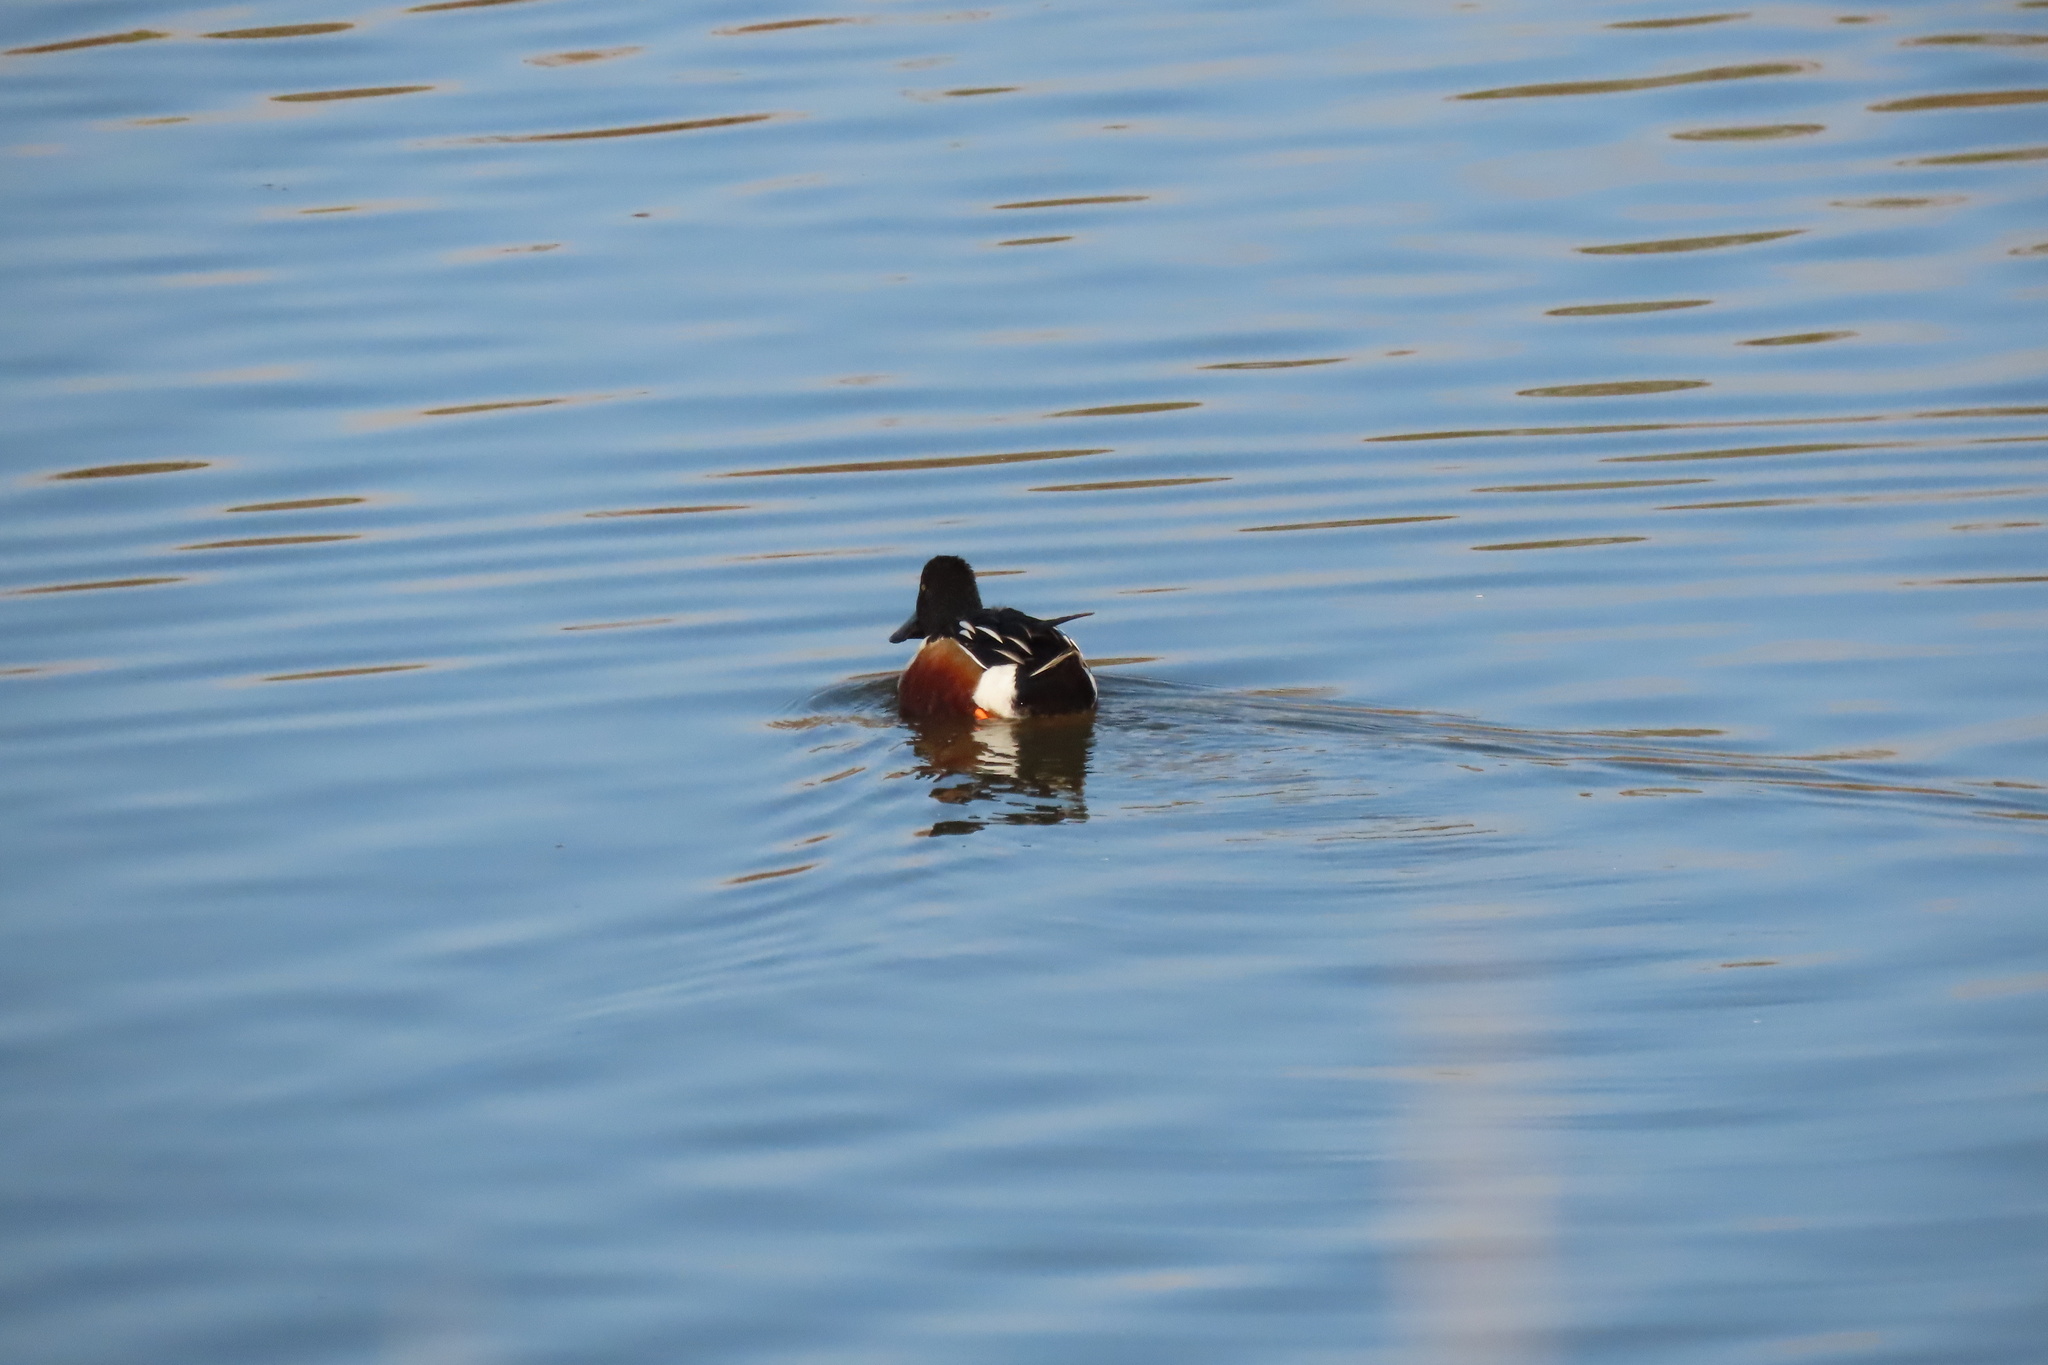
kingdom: Animalia
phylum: Chordata
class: Aves
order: Anseriformes
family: Anatidae
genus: Spatula
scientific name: Spatula clypeata
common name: Northern shoveler
